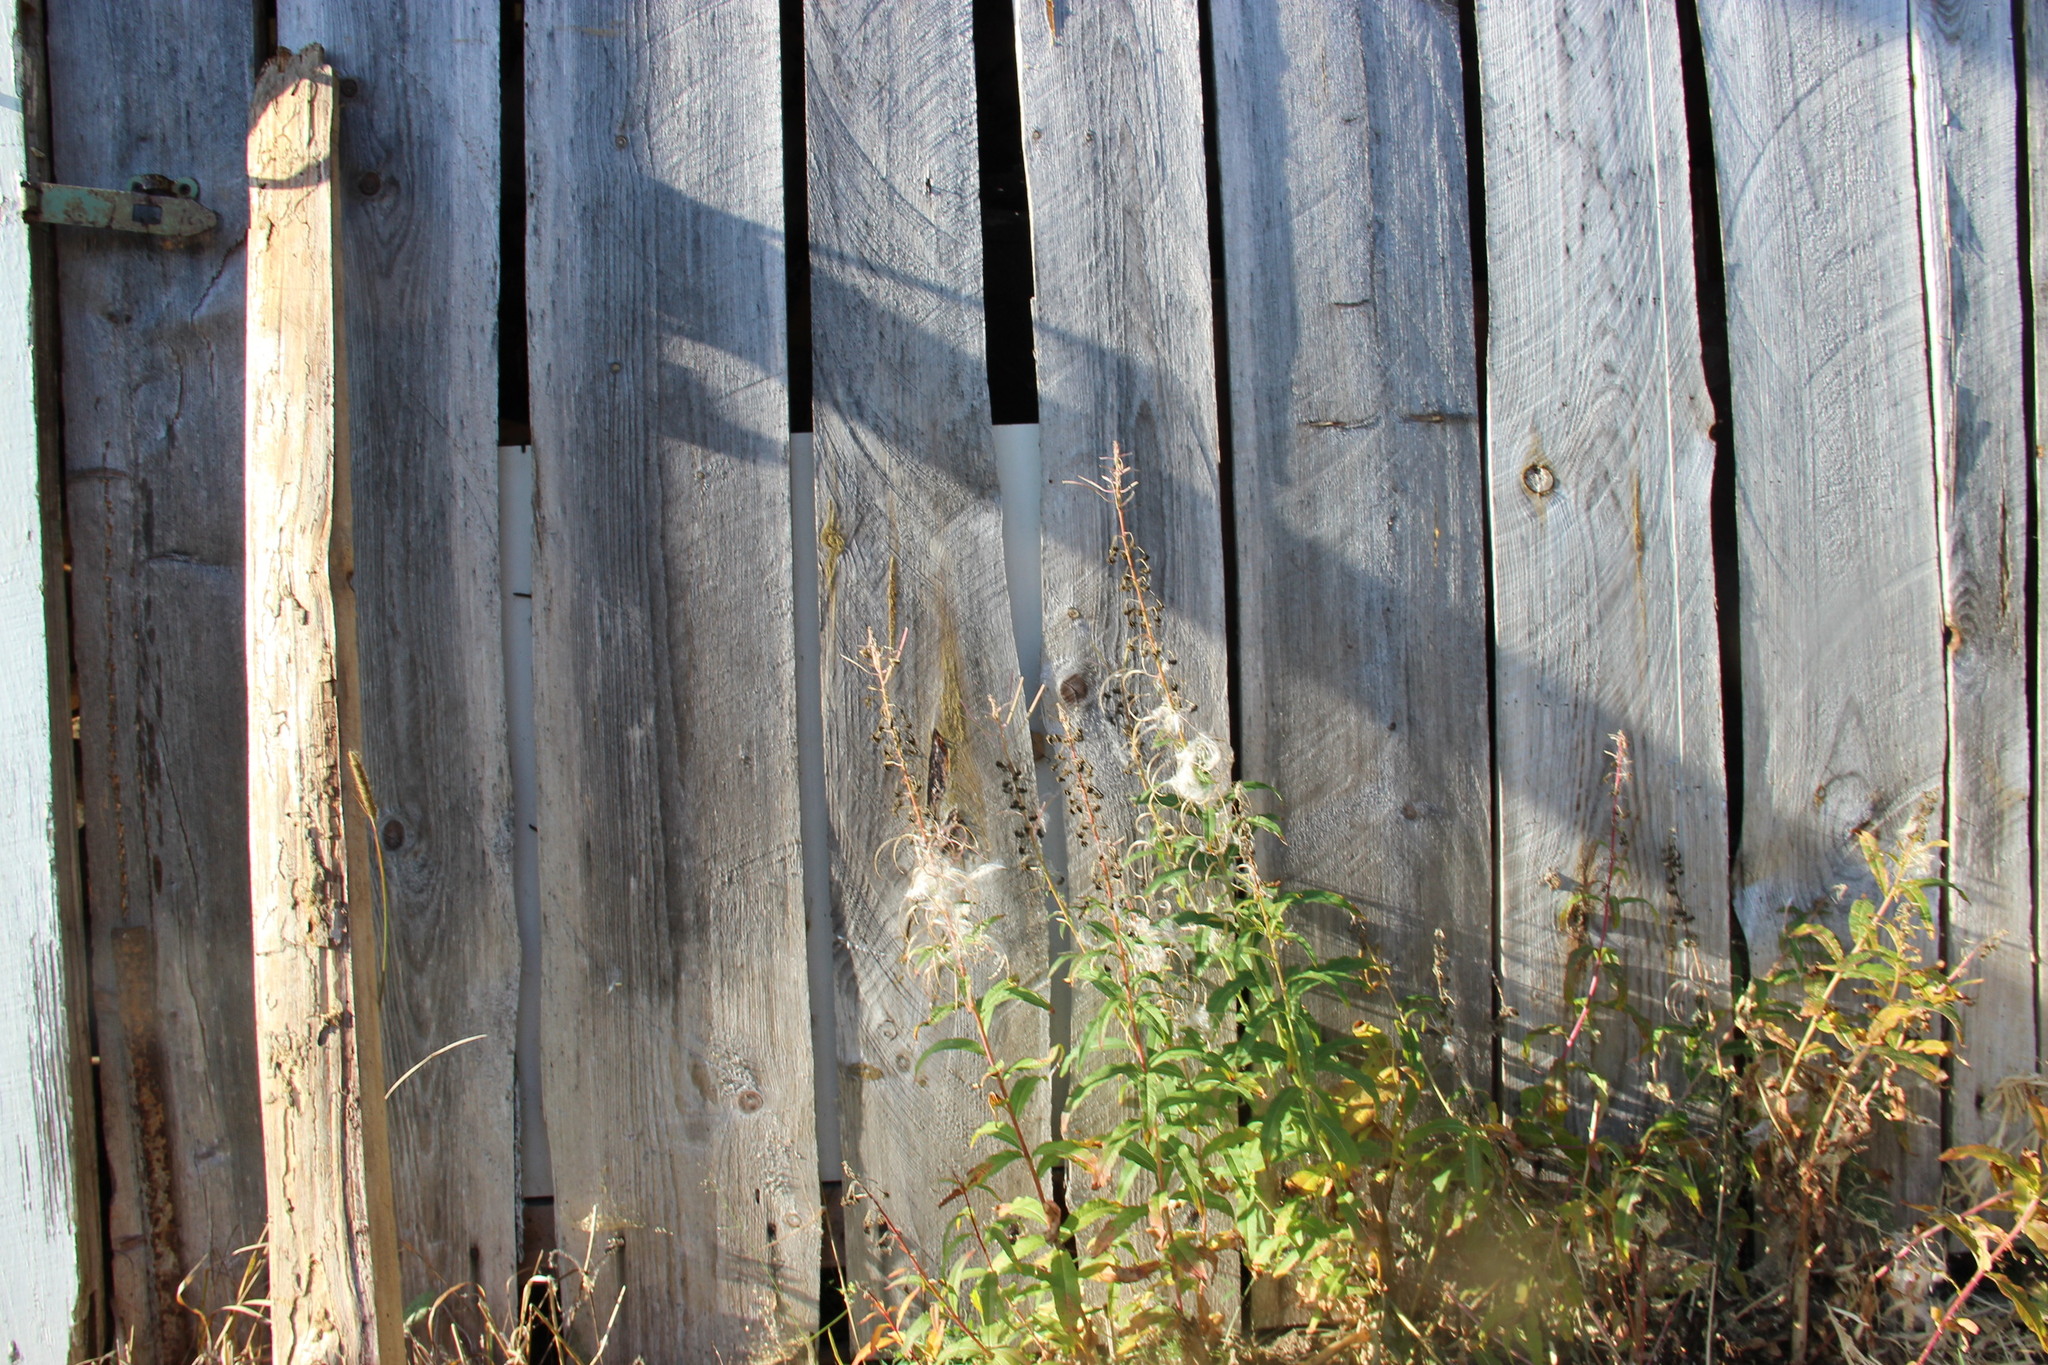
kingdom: Plantae
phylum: Tracheophyta
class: Magnoliopsida
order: Myrtales
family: Onagraceae
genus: Chamaenerion
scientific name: Chamaenerion angustifolium
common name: Fireweed
